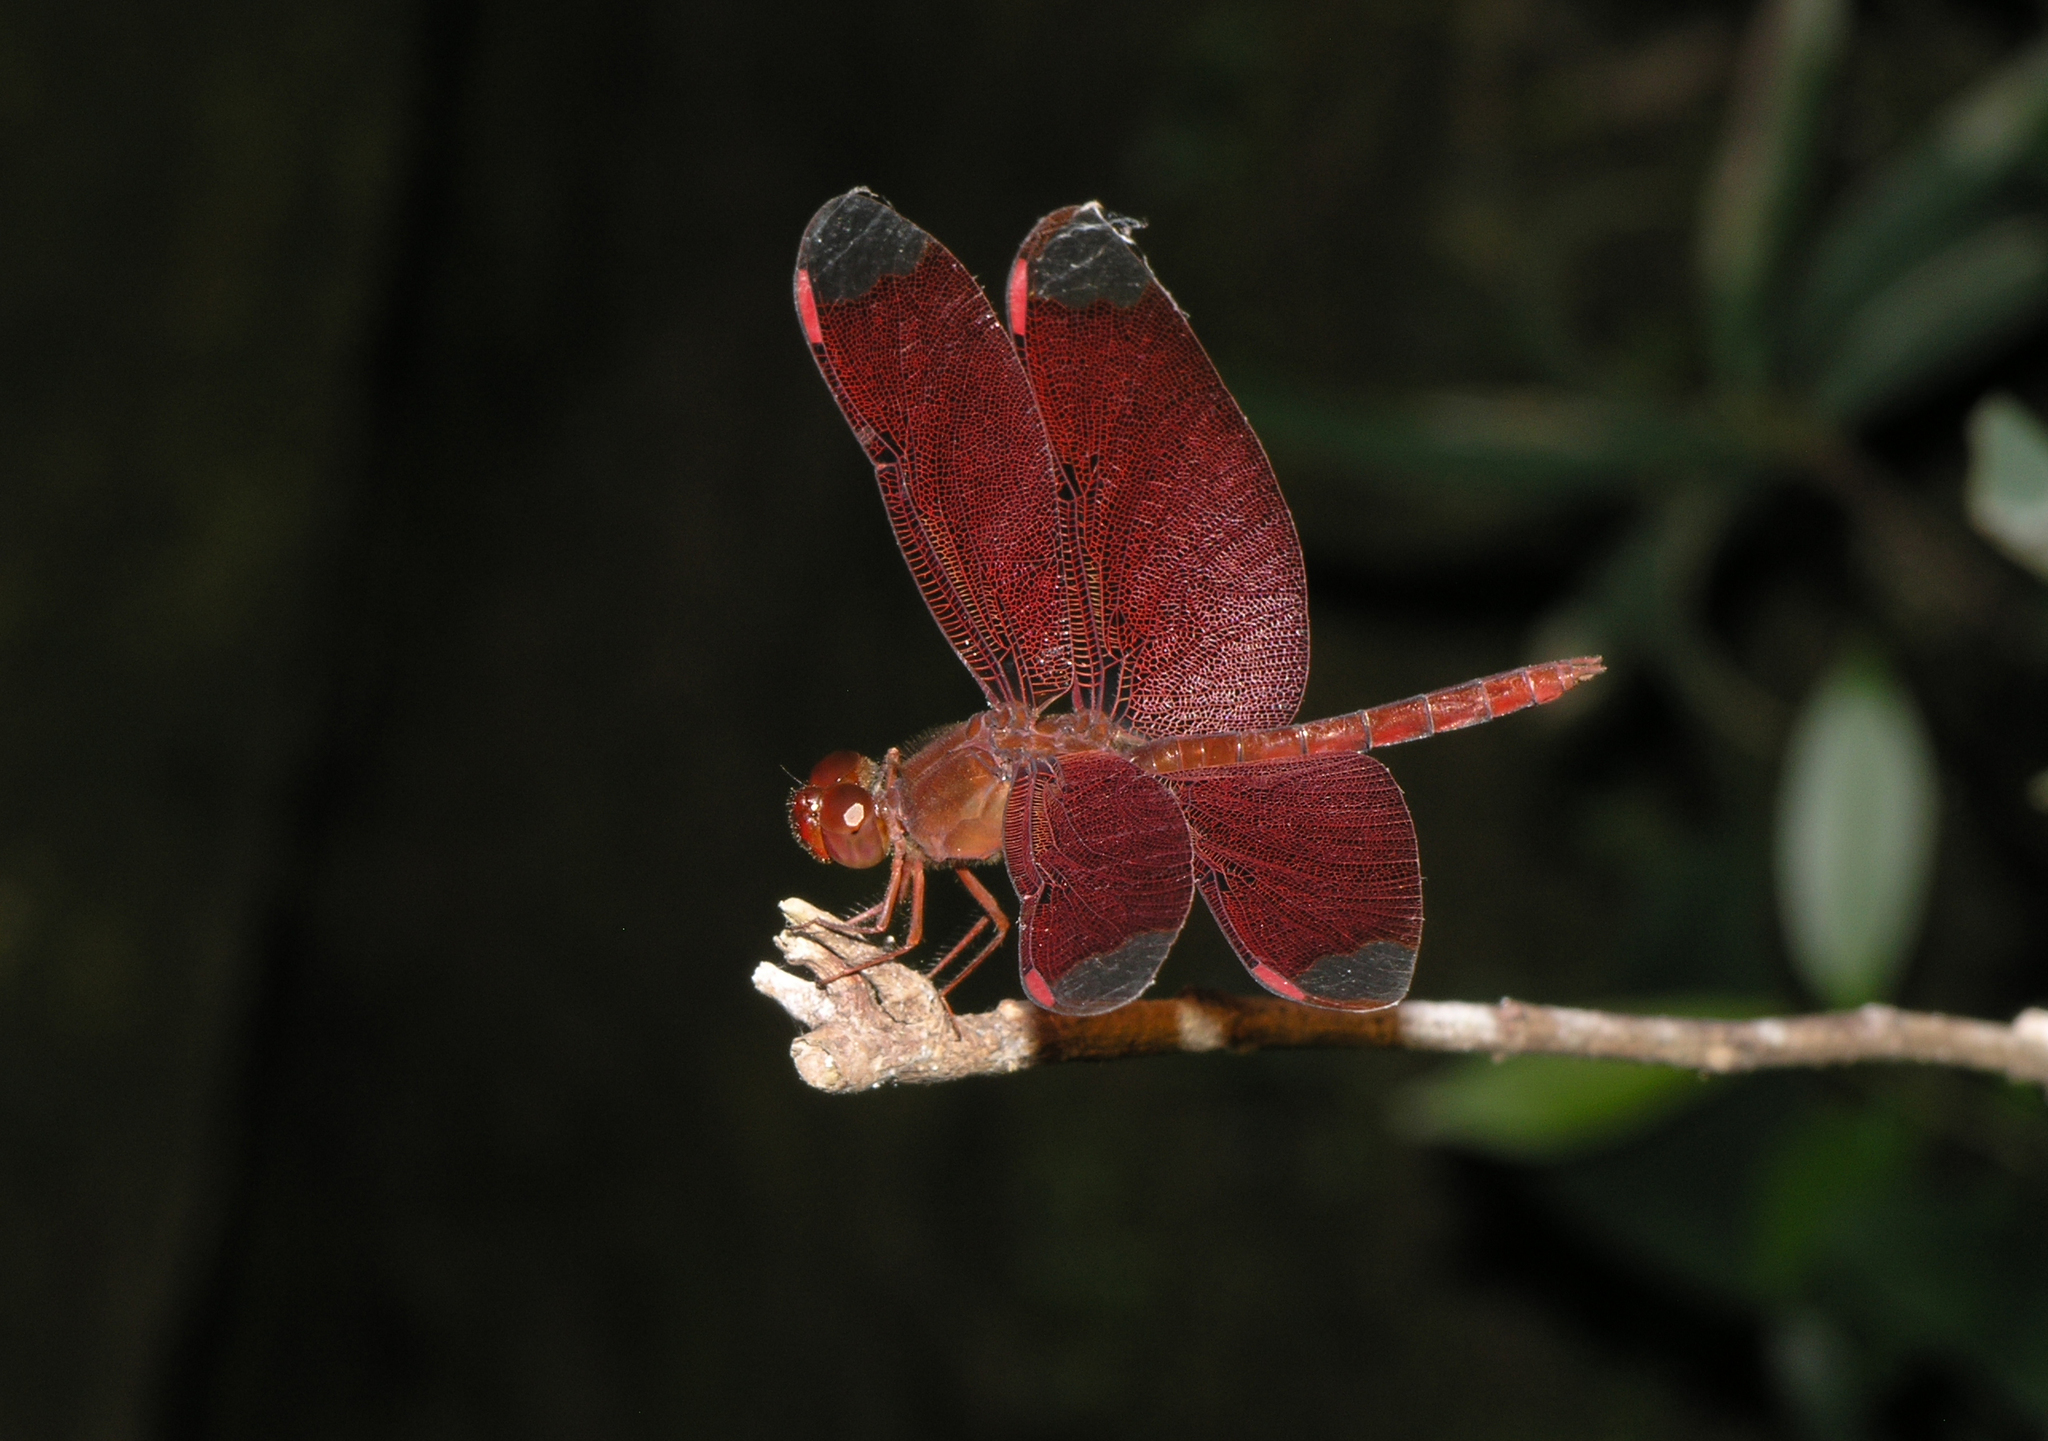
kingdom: Animalia
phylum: Arthropoda
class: Insecta
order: Odonata
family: Libellulidae
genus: Neurothemis
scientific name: Neurothemis fulvia
